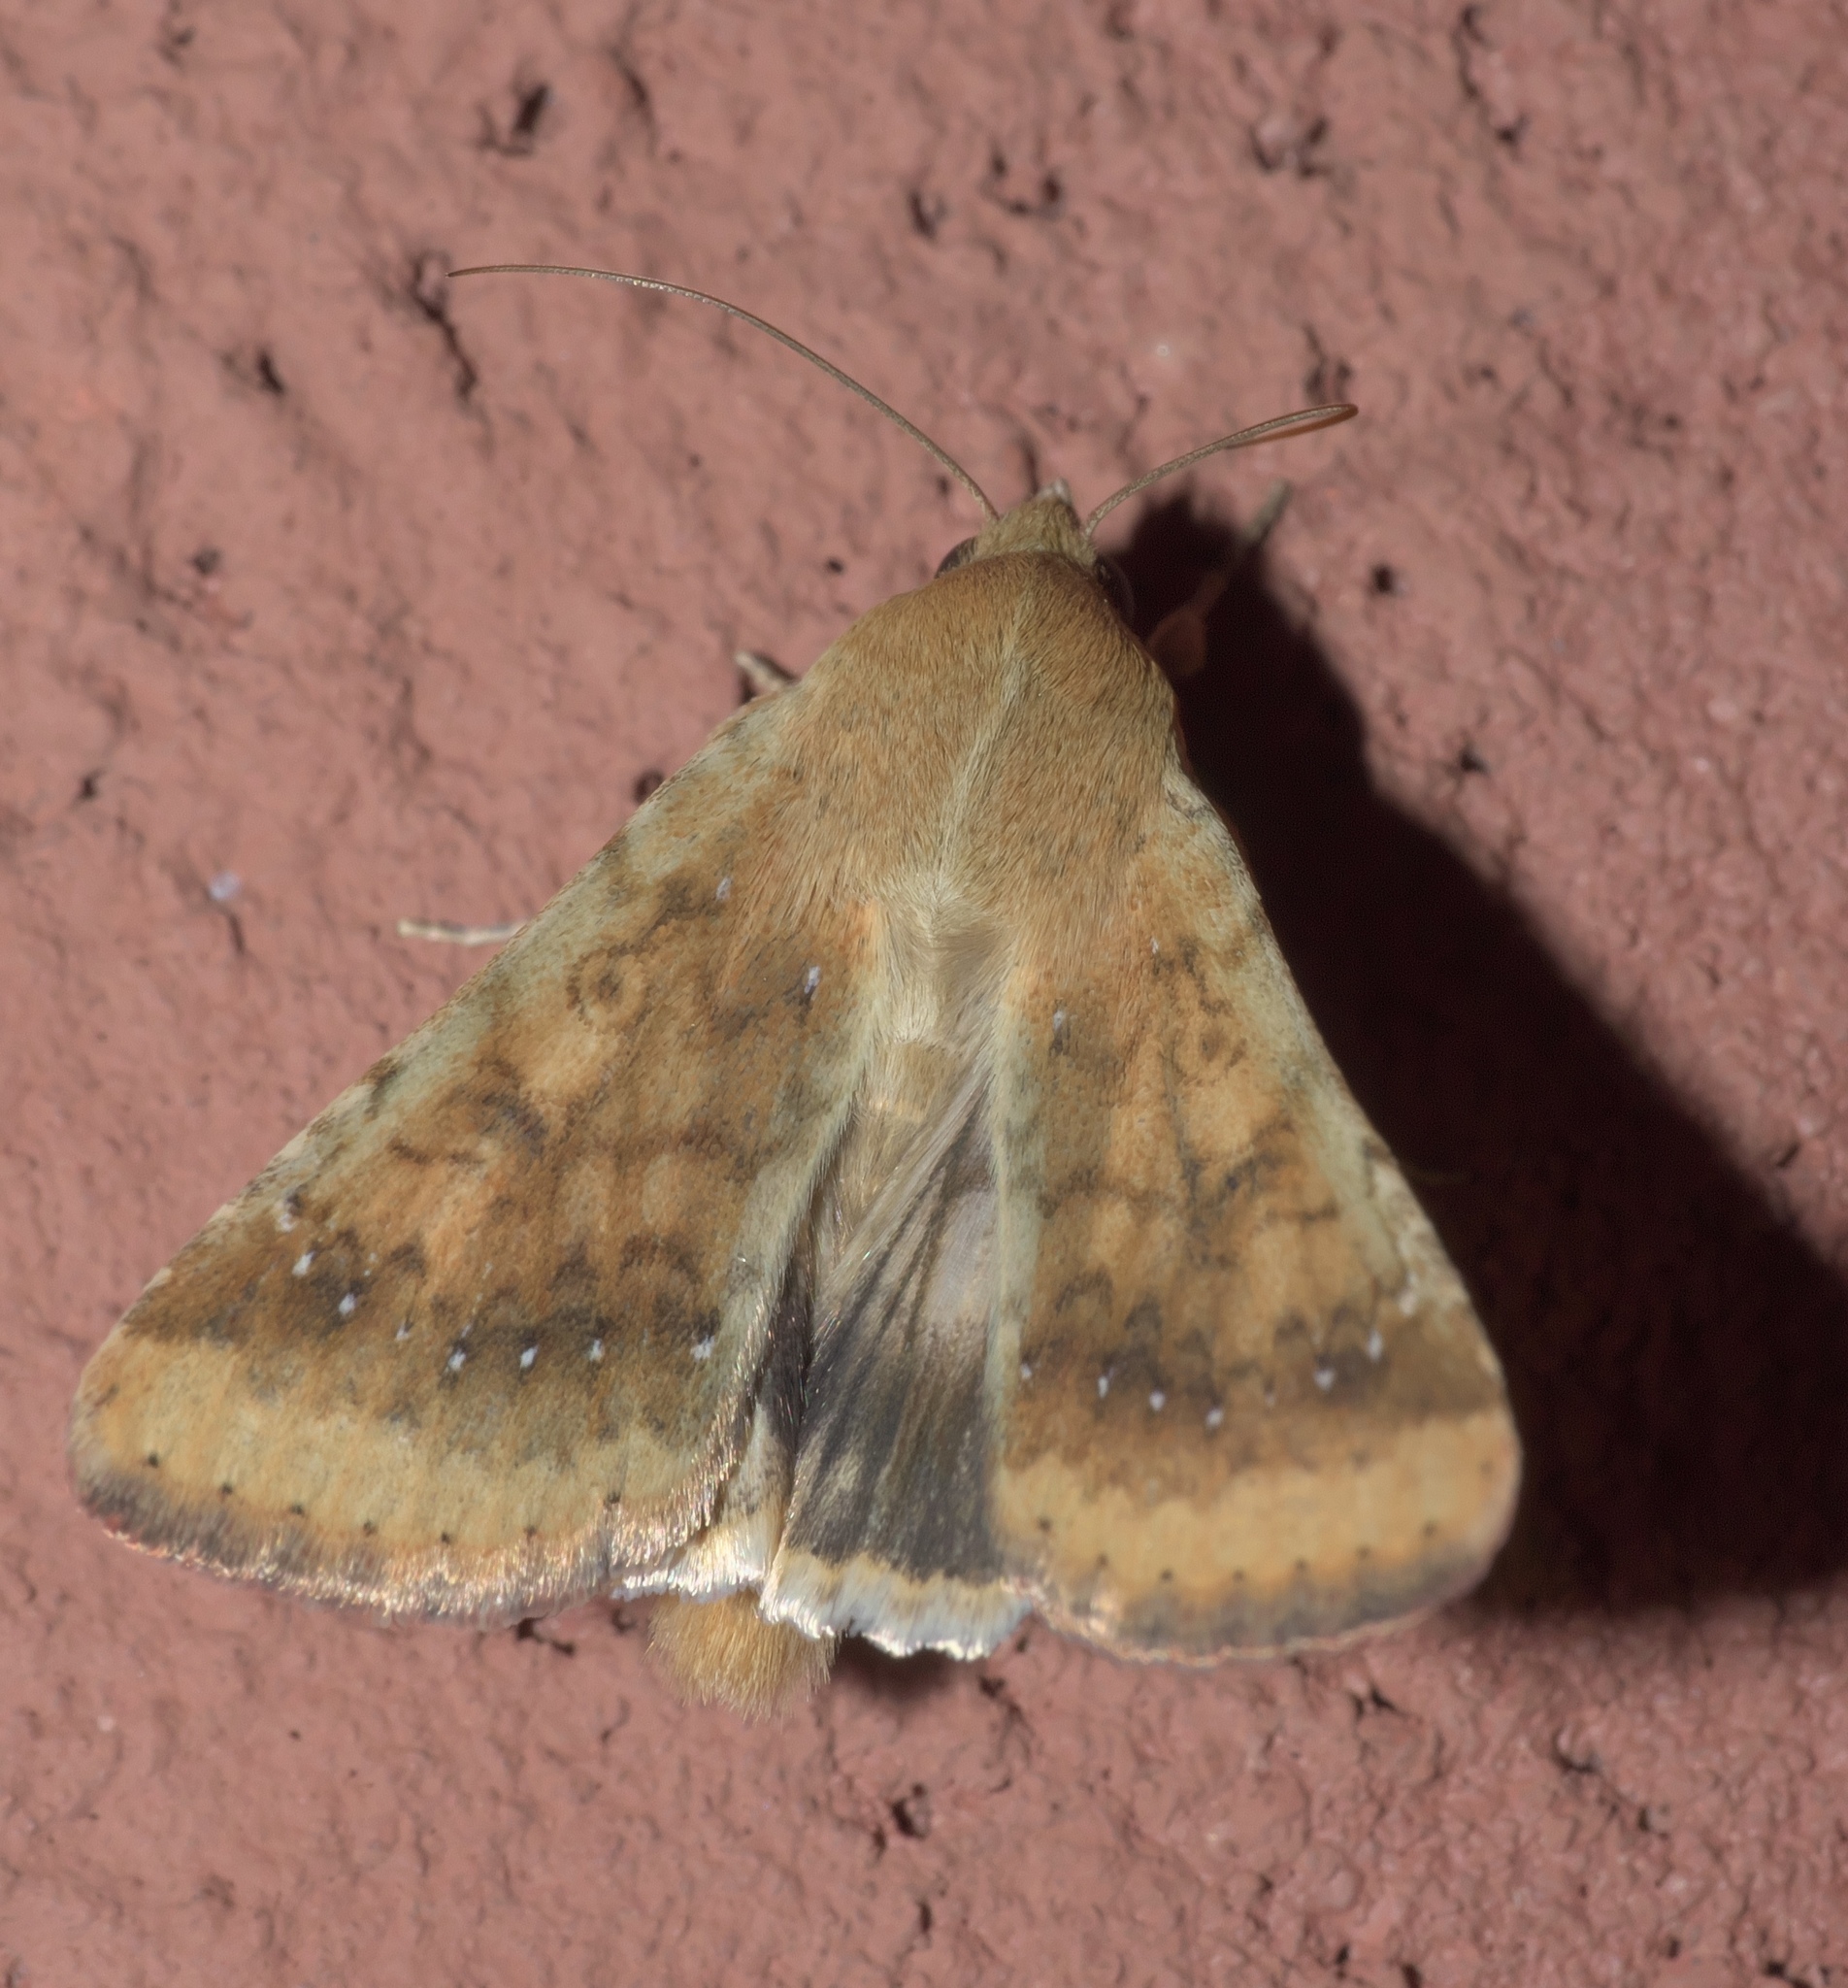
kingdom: Animalia
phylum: Arthropoda
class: Insecta
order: Lepidoptera
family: Noctuidae
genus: Helicoverpa
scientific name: Helicoverpa zea
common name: Bollworm
